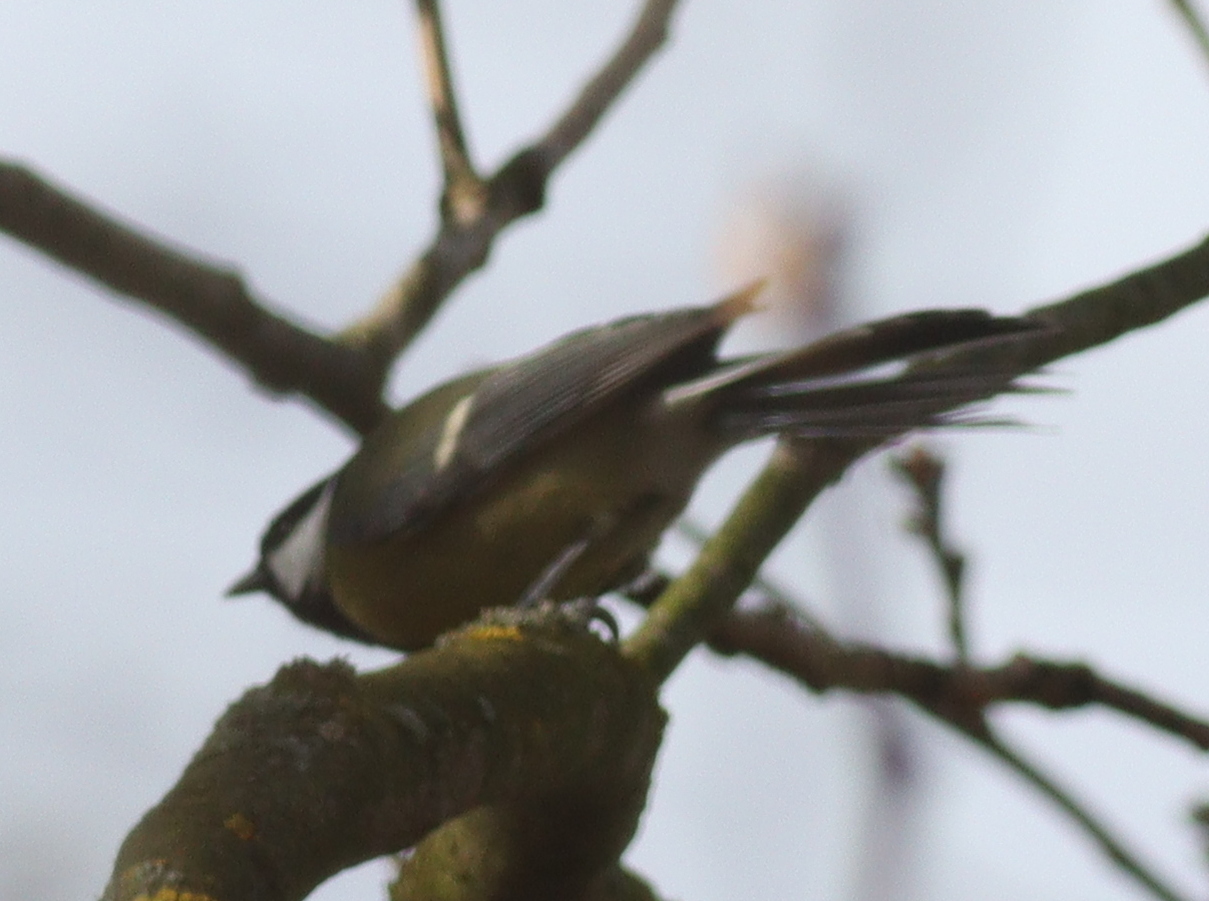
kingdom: Animalia
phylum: Chordata
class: Aves
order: Passeriformes
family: Paridae
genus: Parus
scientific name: Parus major
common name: Great tit
